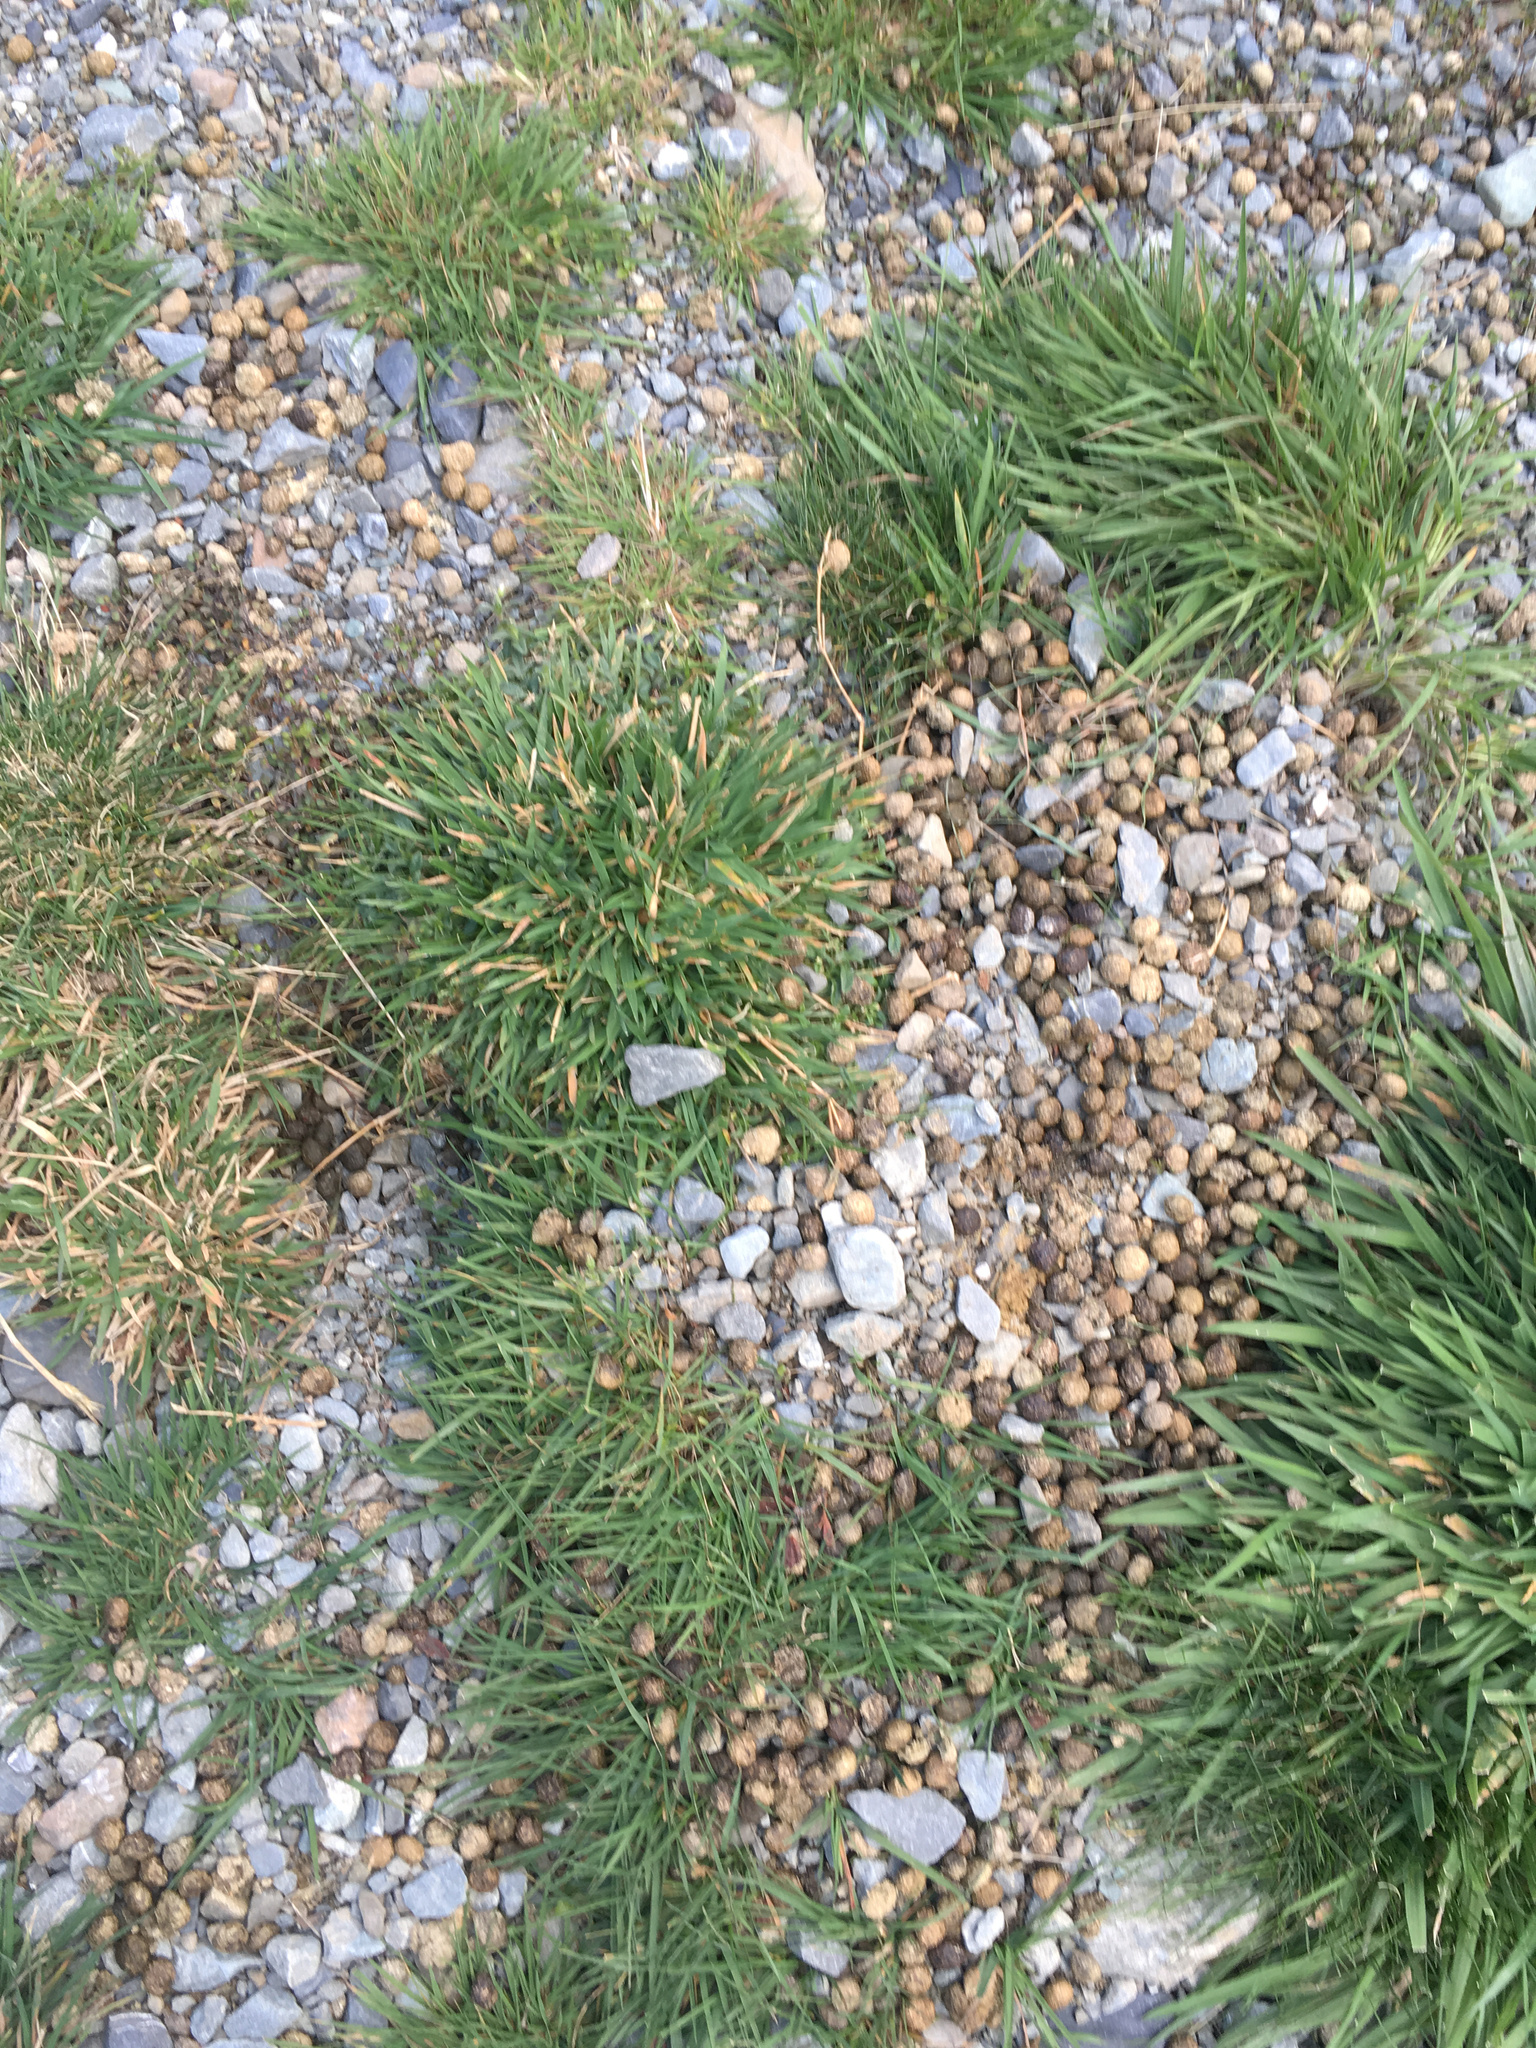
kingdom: Animalia
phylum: Chordata
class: Mammalia
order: Lagomorpha
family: Leporidae
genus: Oryctolagus
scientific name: Oryctolagus cuniculus
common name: European rabbit
